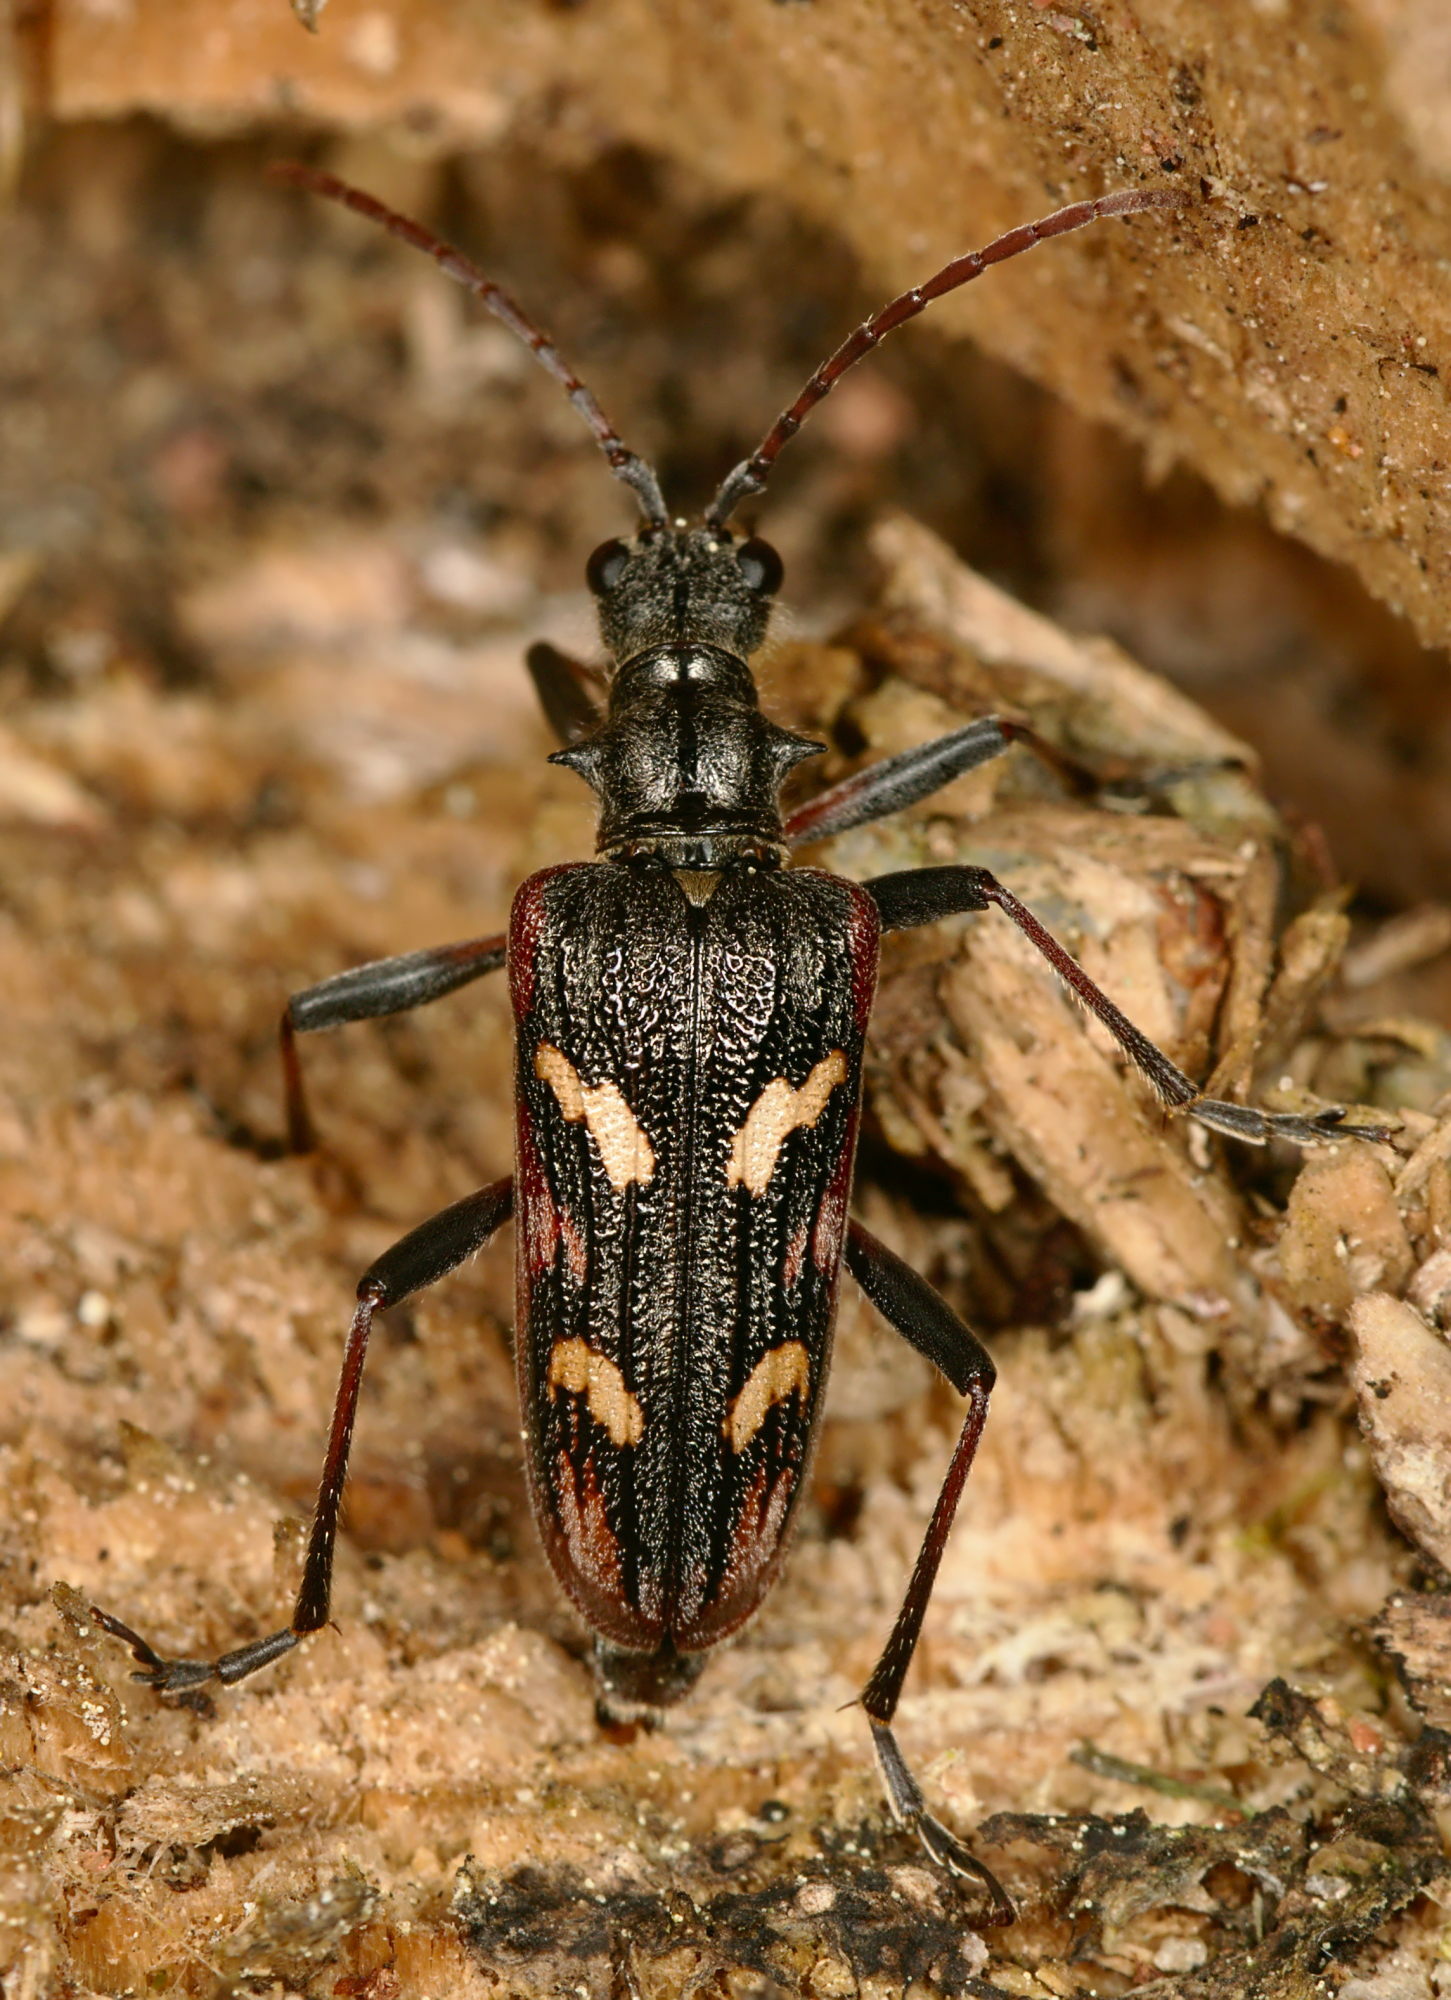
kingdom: Animalia
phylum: Arthropoda
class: Insecta
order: Coleoptera
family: Cerambycidae
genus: Rhagium
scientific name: Rhagium bifasciatum
